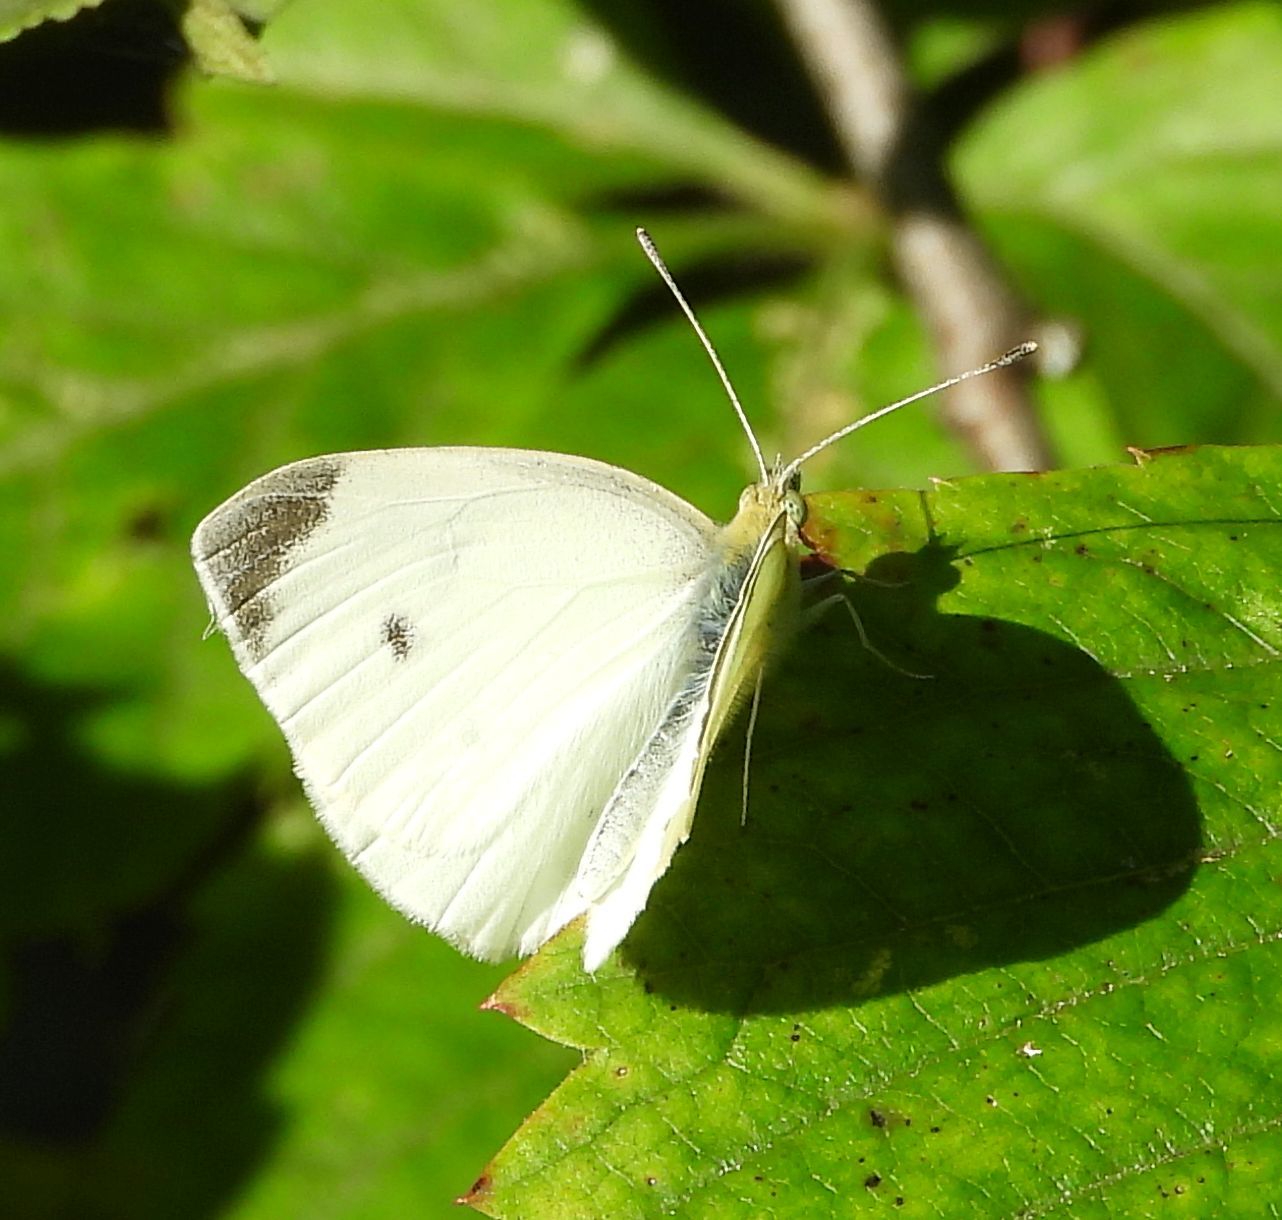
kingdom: Animalia
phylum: Arthropoda
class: Insecta
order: Lepidoptera
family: Pieridae
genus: Pieris
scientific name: Pieris rapae
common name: Small white
